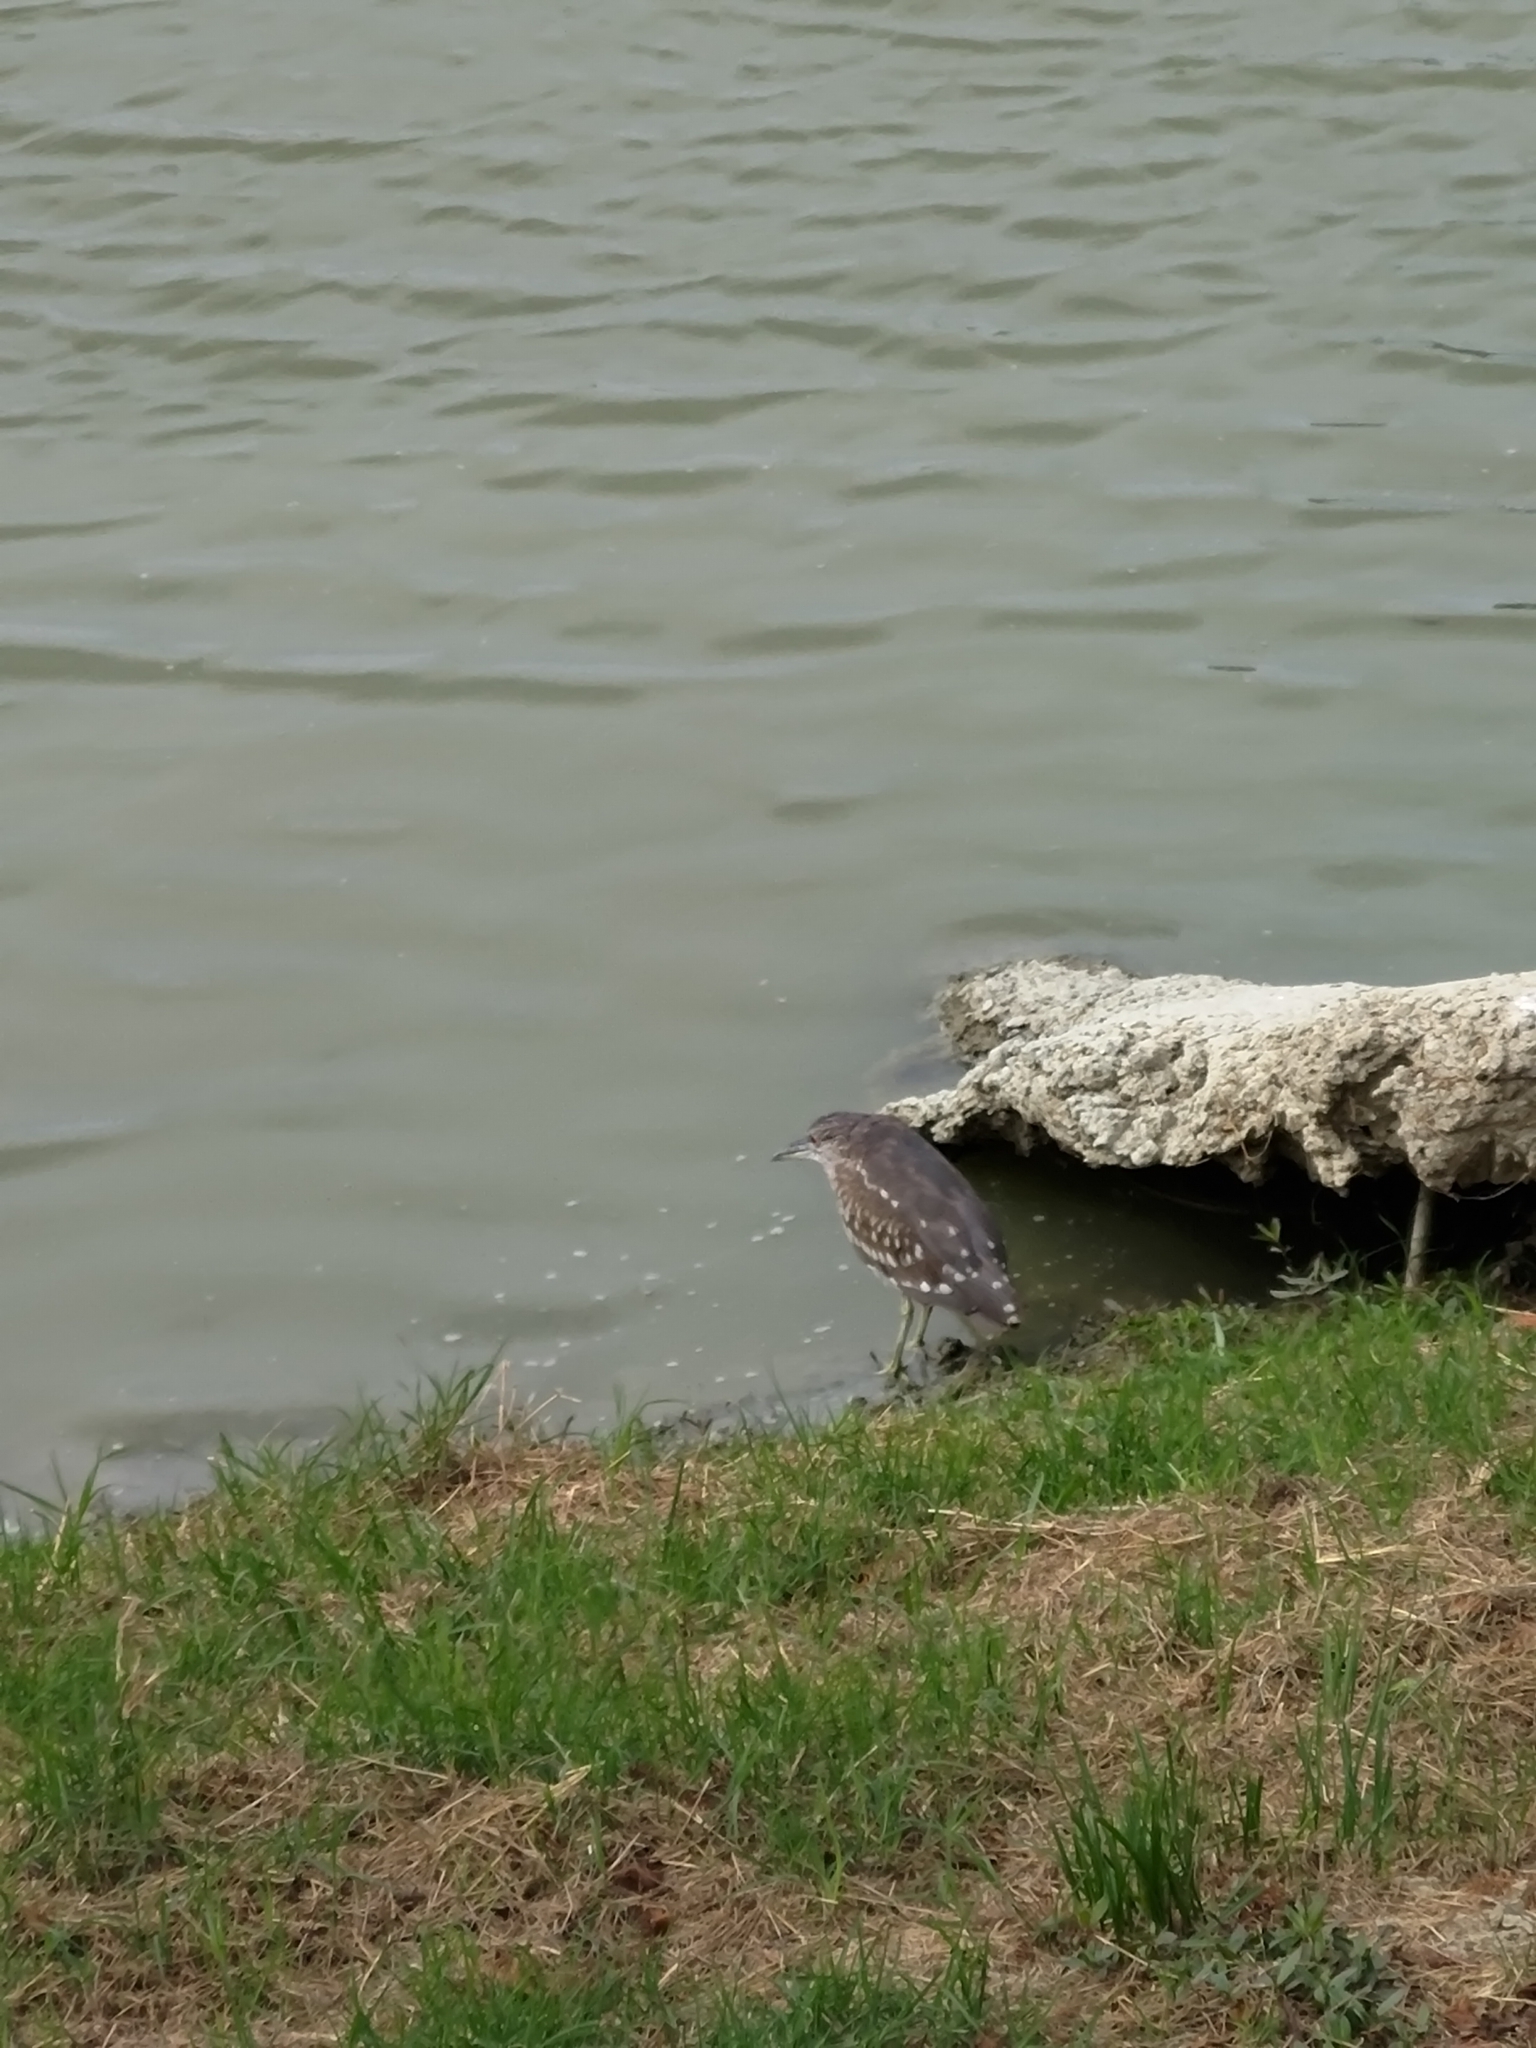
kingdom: Animalia
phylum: Chordata
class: Aves
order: Pelecaniformes
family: Ardeidae
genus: Nycticorax
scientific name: Nycticorax nycticorax
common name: Black-crowned night heron
